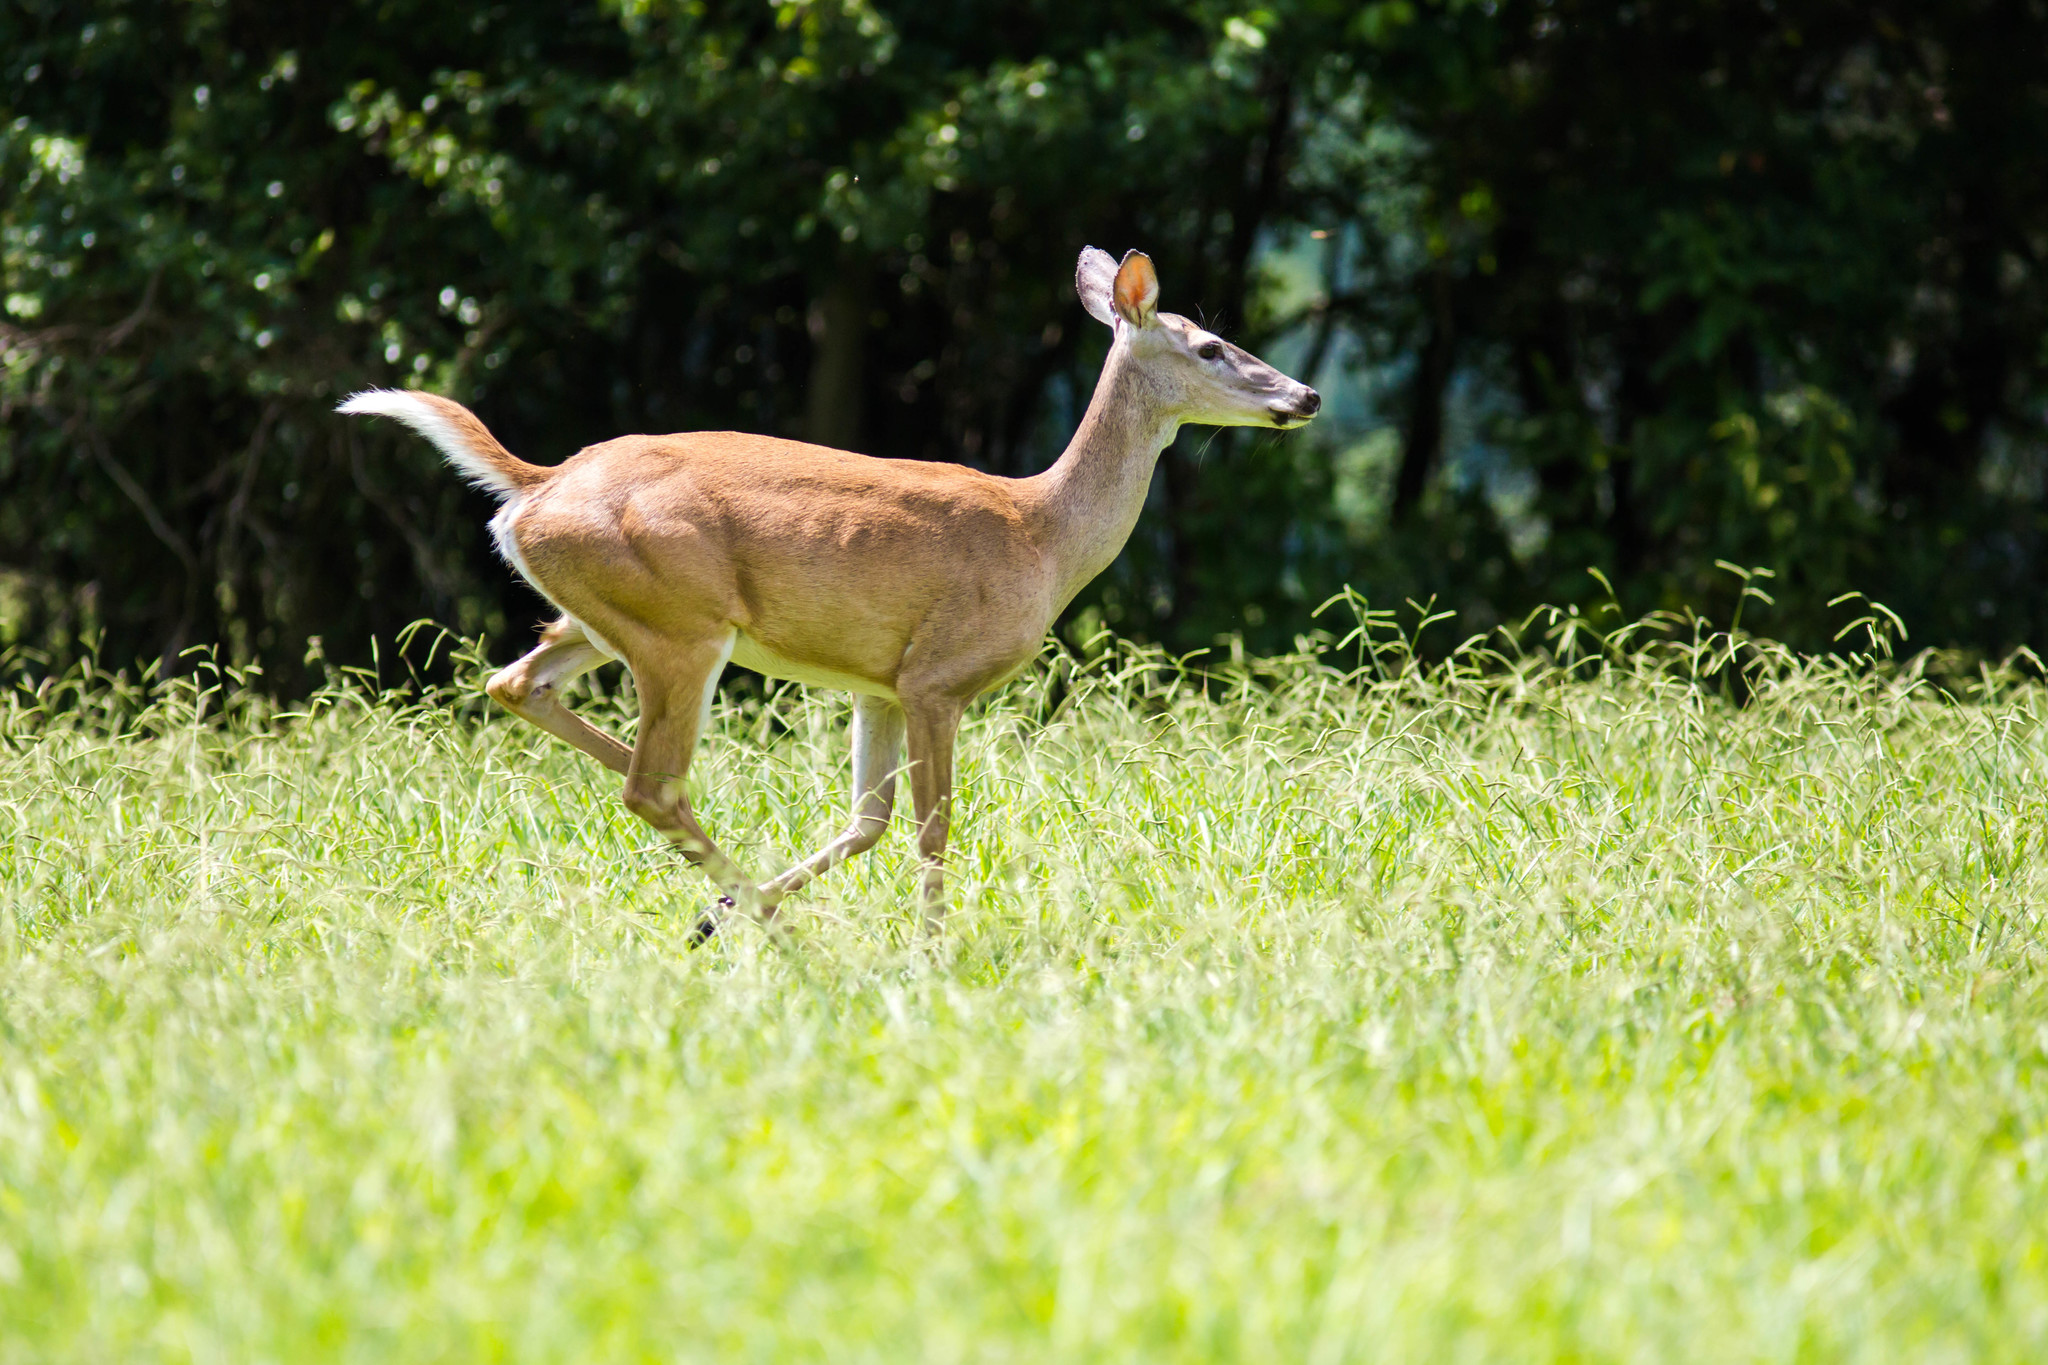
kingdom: Animalia
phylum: Chordata
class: Mammalia
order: Artiodactyla
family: Cervidae
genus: Odocoileus
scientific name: Odocoileus virginianus
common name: White-tailed deer
